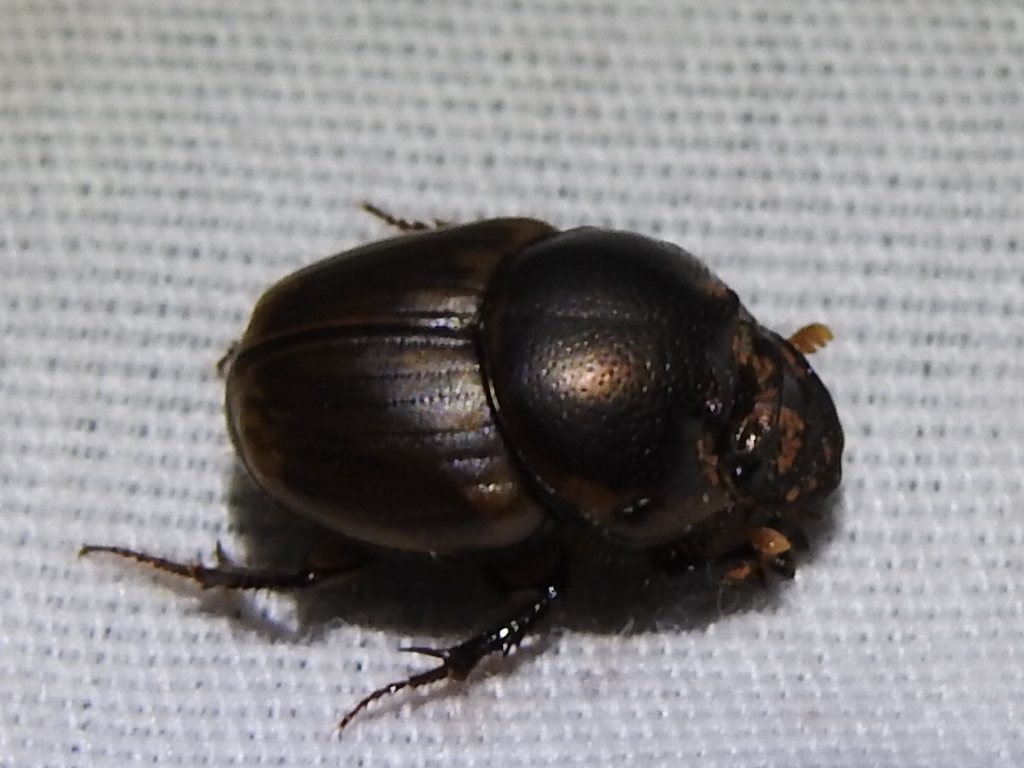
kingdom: Animalia
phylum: Arthropoda
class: Insecta
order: Coleoptera
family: Scarabaeidae
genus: Digitonthophagus
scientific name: Digitonthophagus gazella
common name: Brown dung beetle
